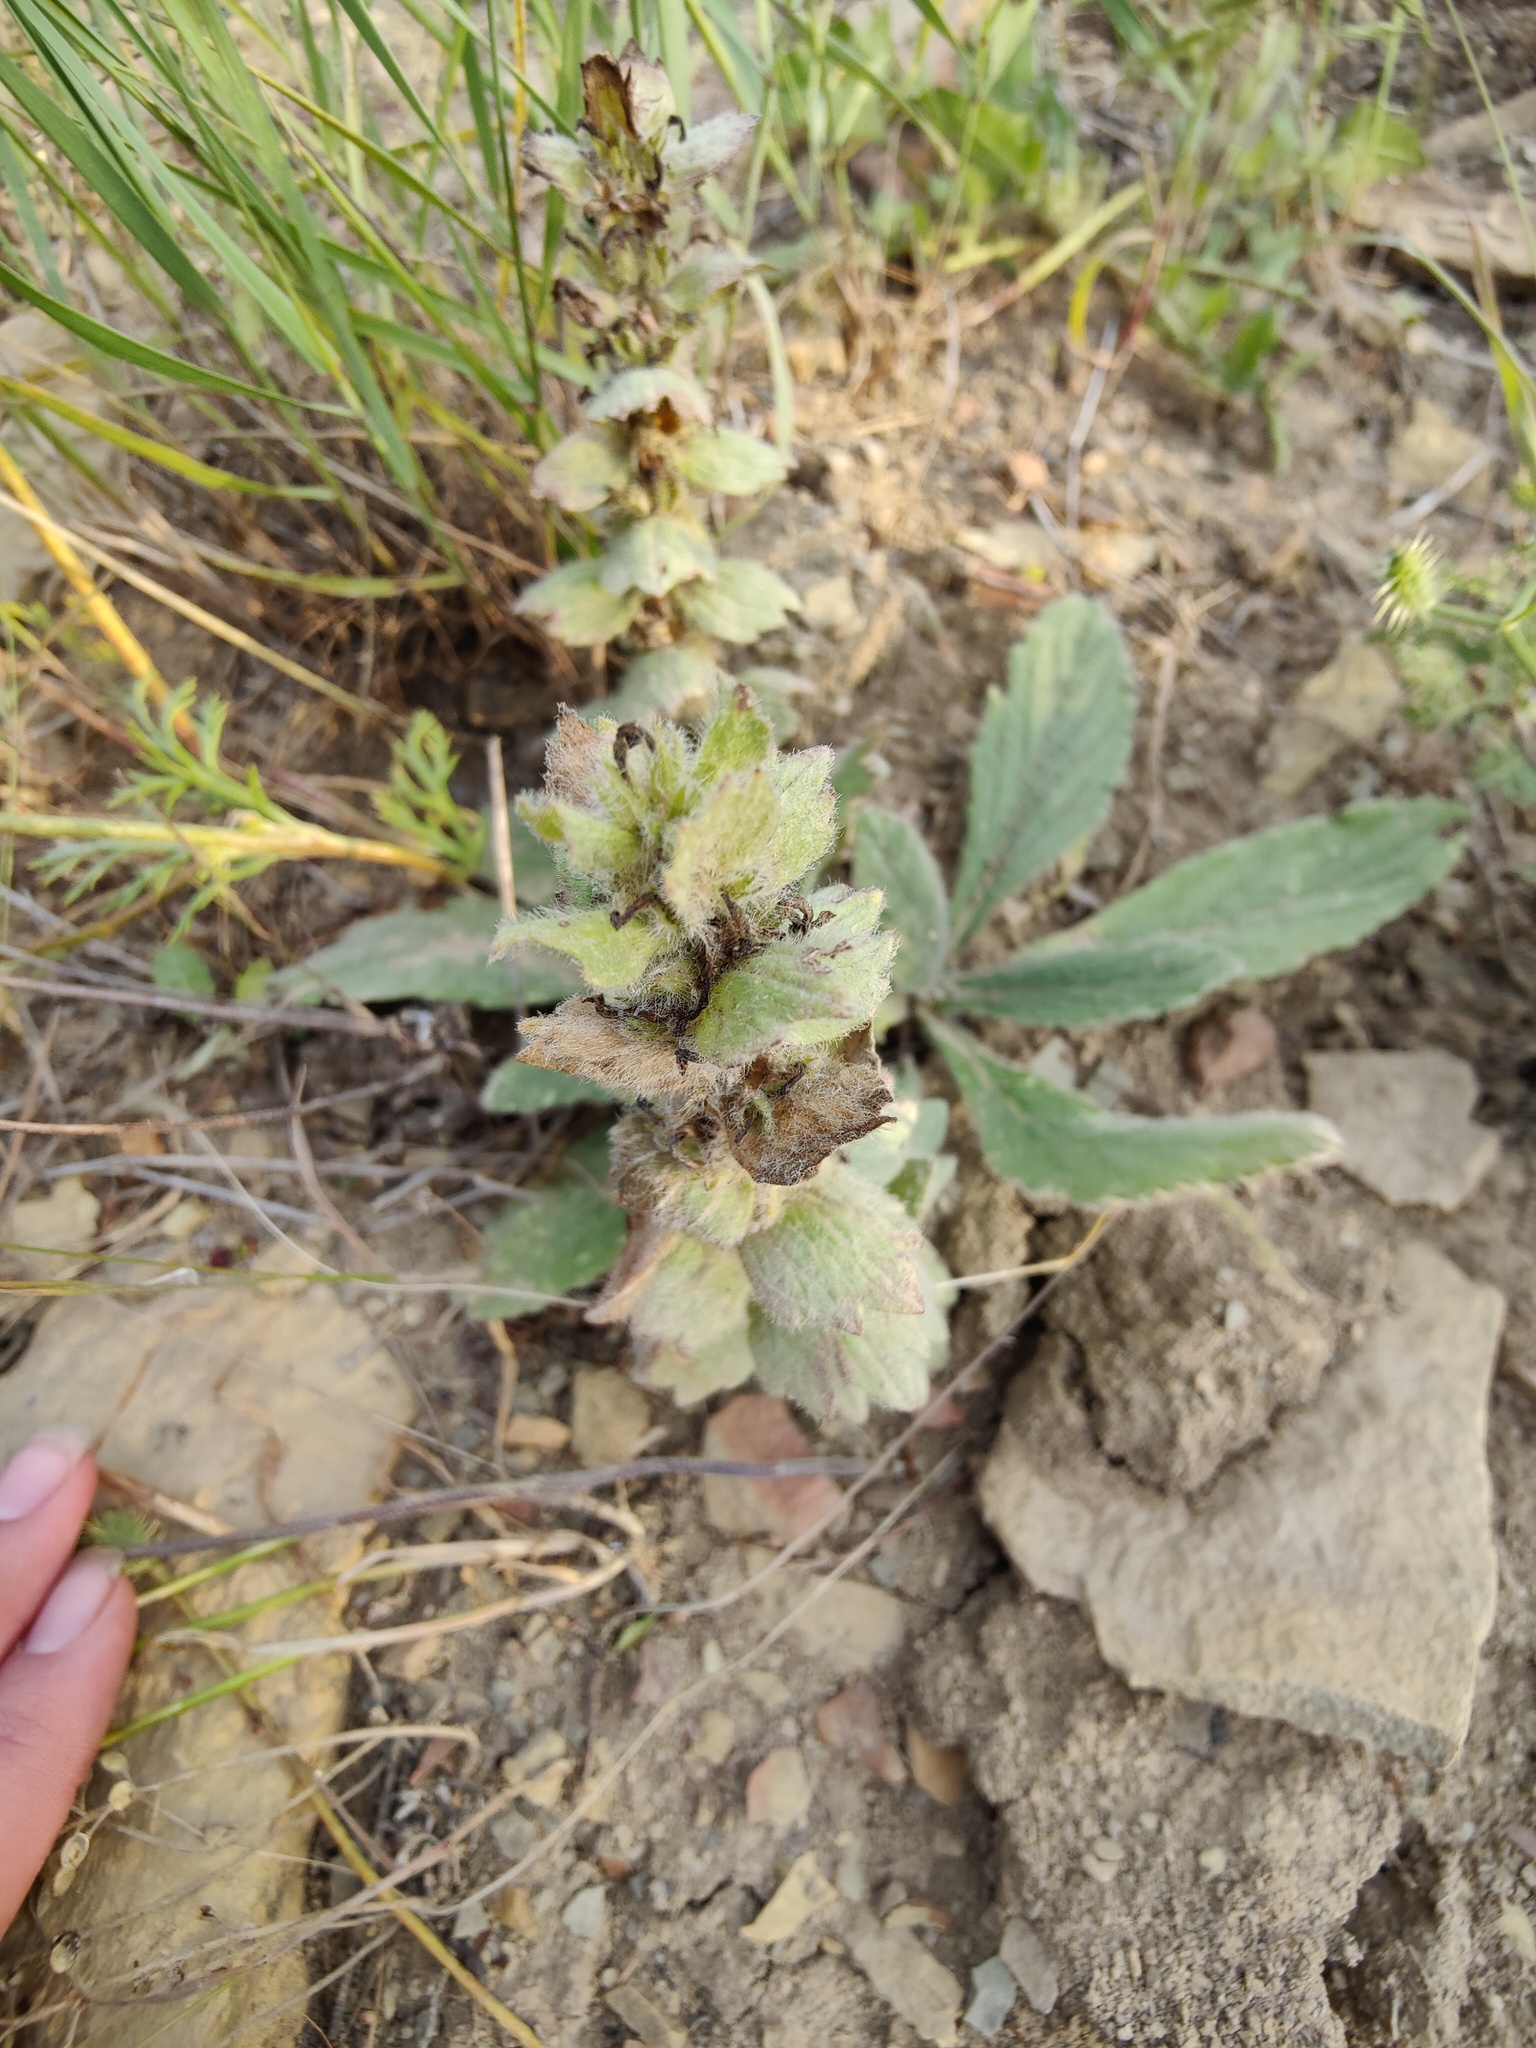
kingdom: Plantae
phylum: Tracheophyta
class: Magnoliopsida
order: Lamiales
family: Lamiaceae
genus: Ajuga
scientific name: Ajuga orientalis
